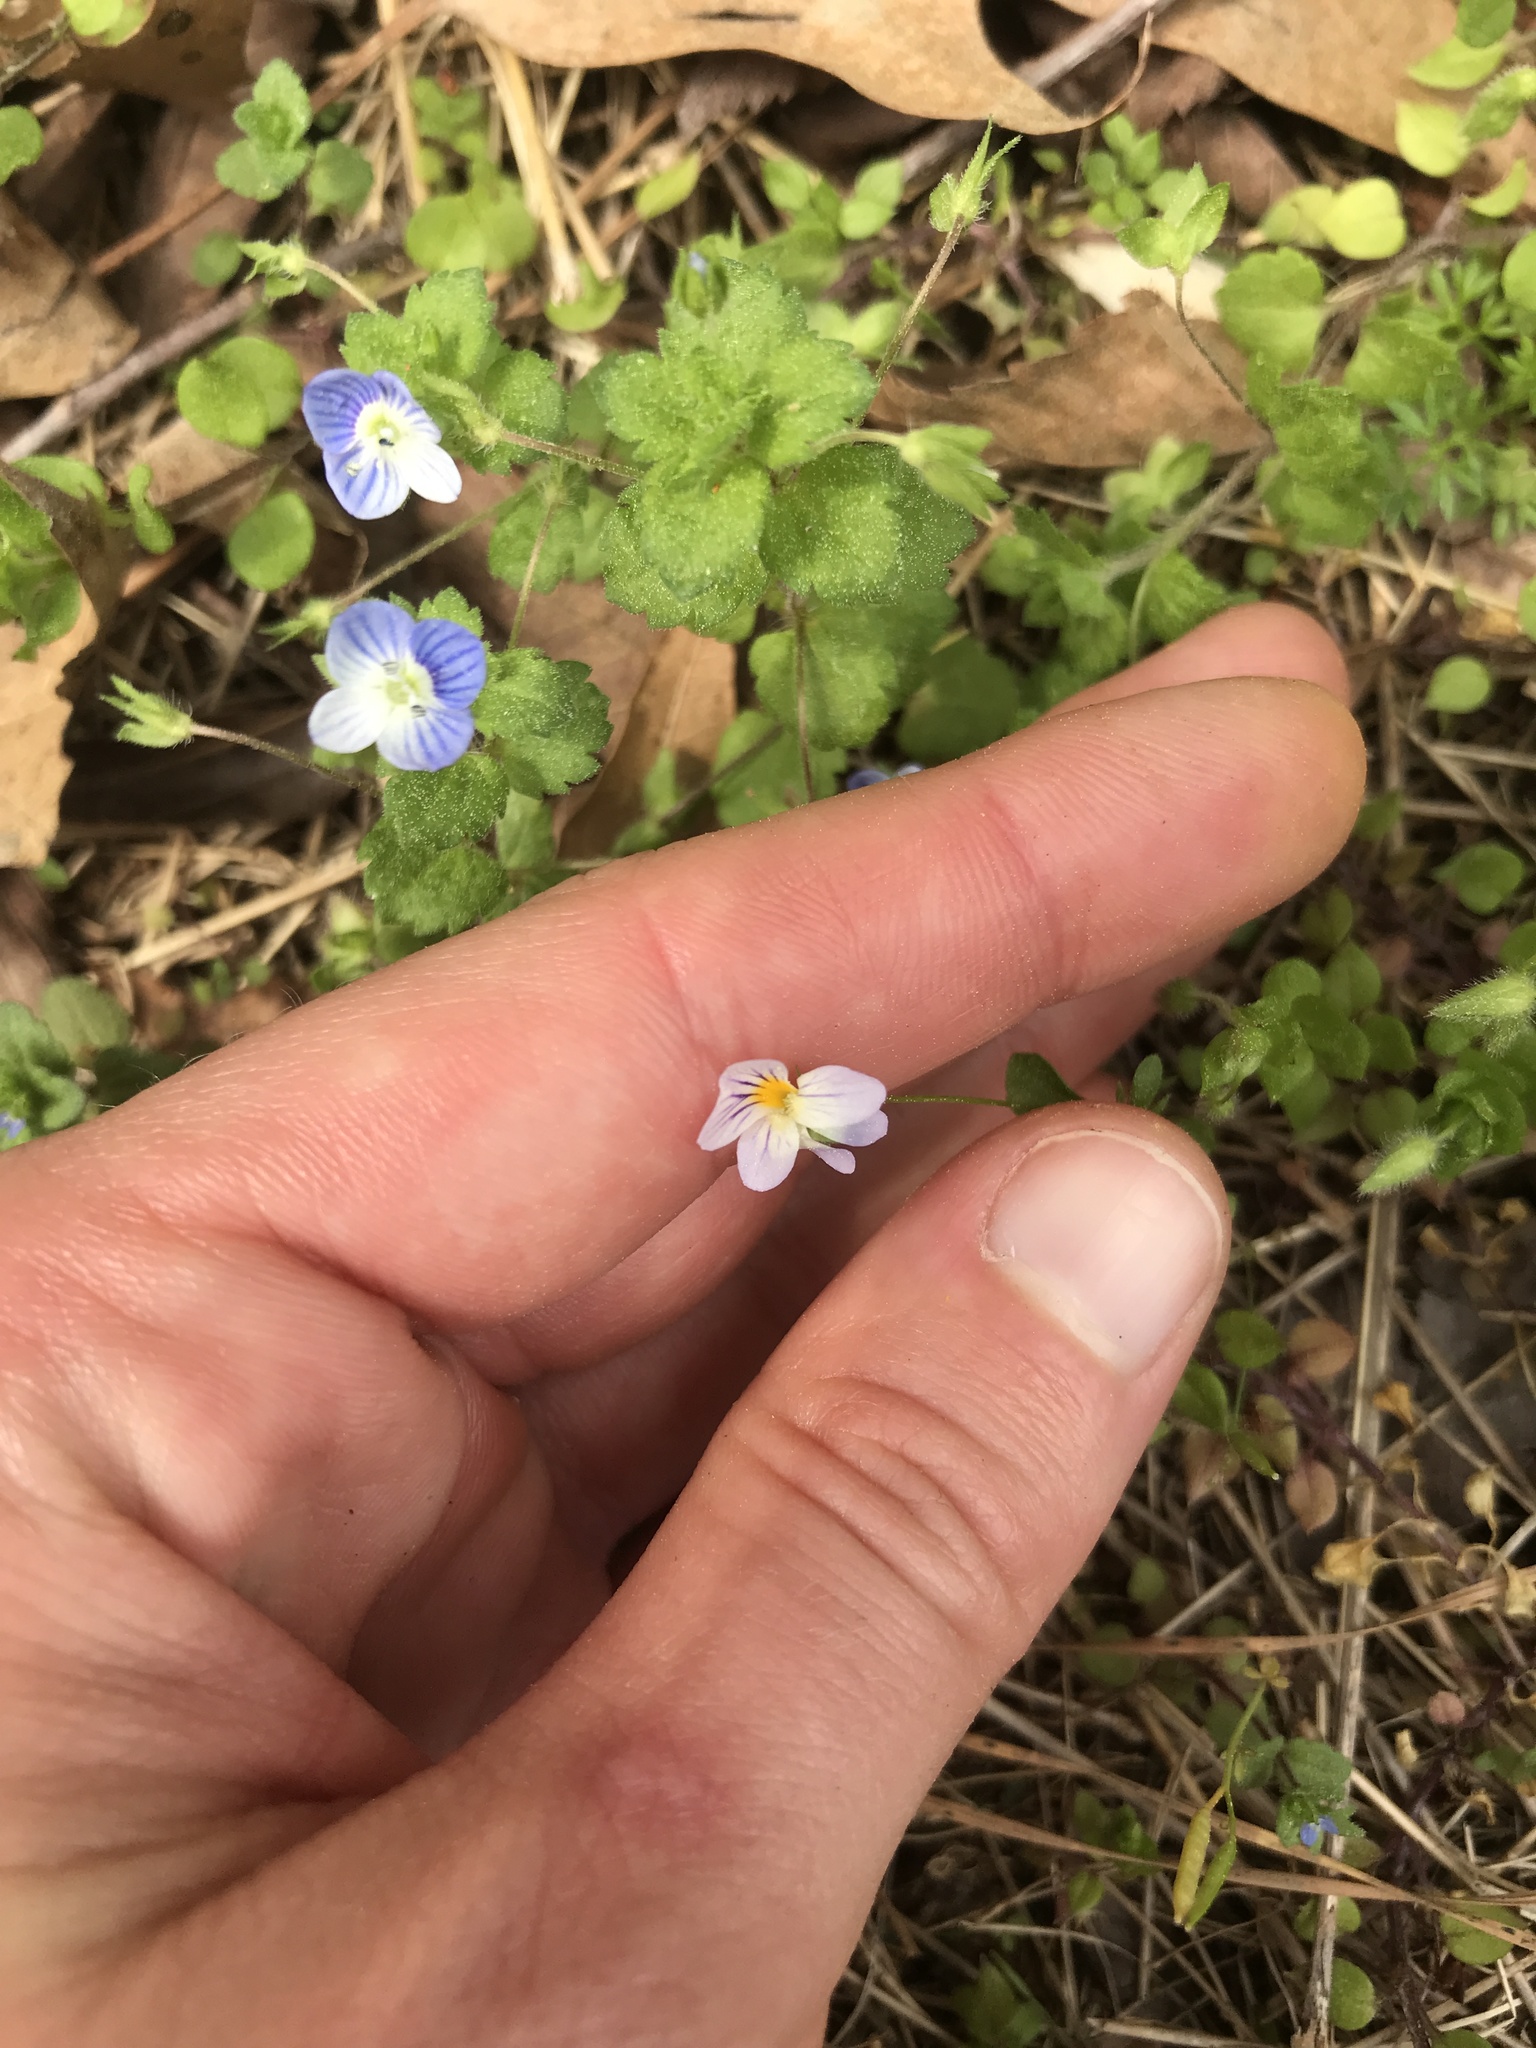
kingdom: Plantae
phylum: Tracheophyta
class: Magnoliopsida
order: Malpighiales
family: Violaceae
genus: Viola
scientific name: Viola rafinesquei
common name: American field pansy
